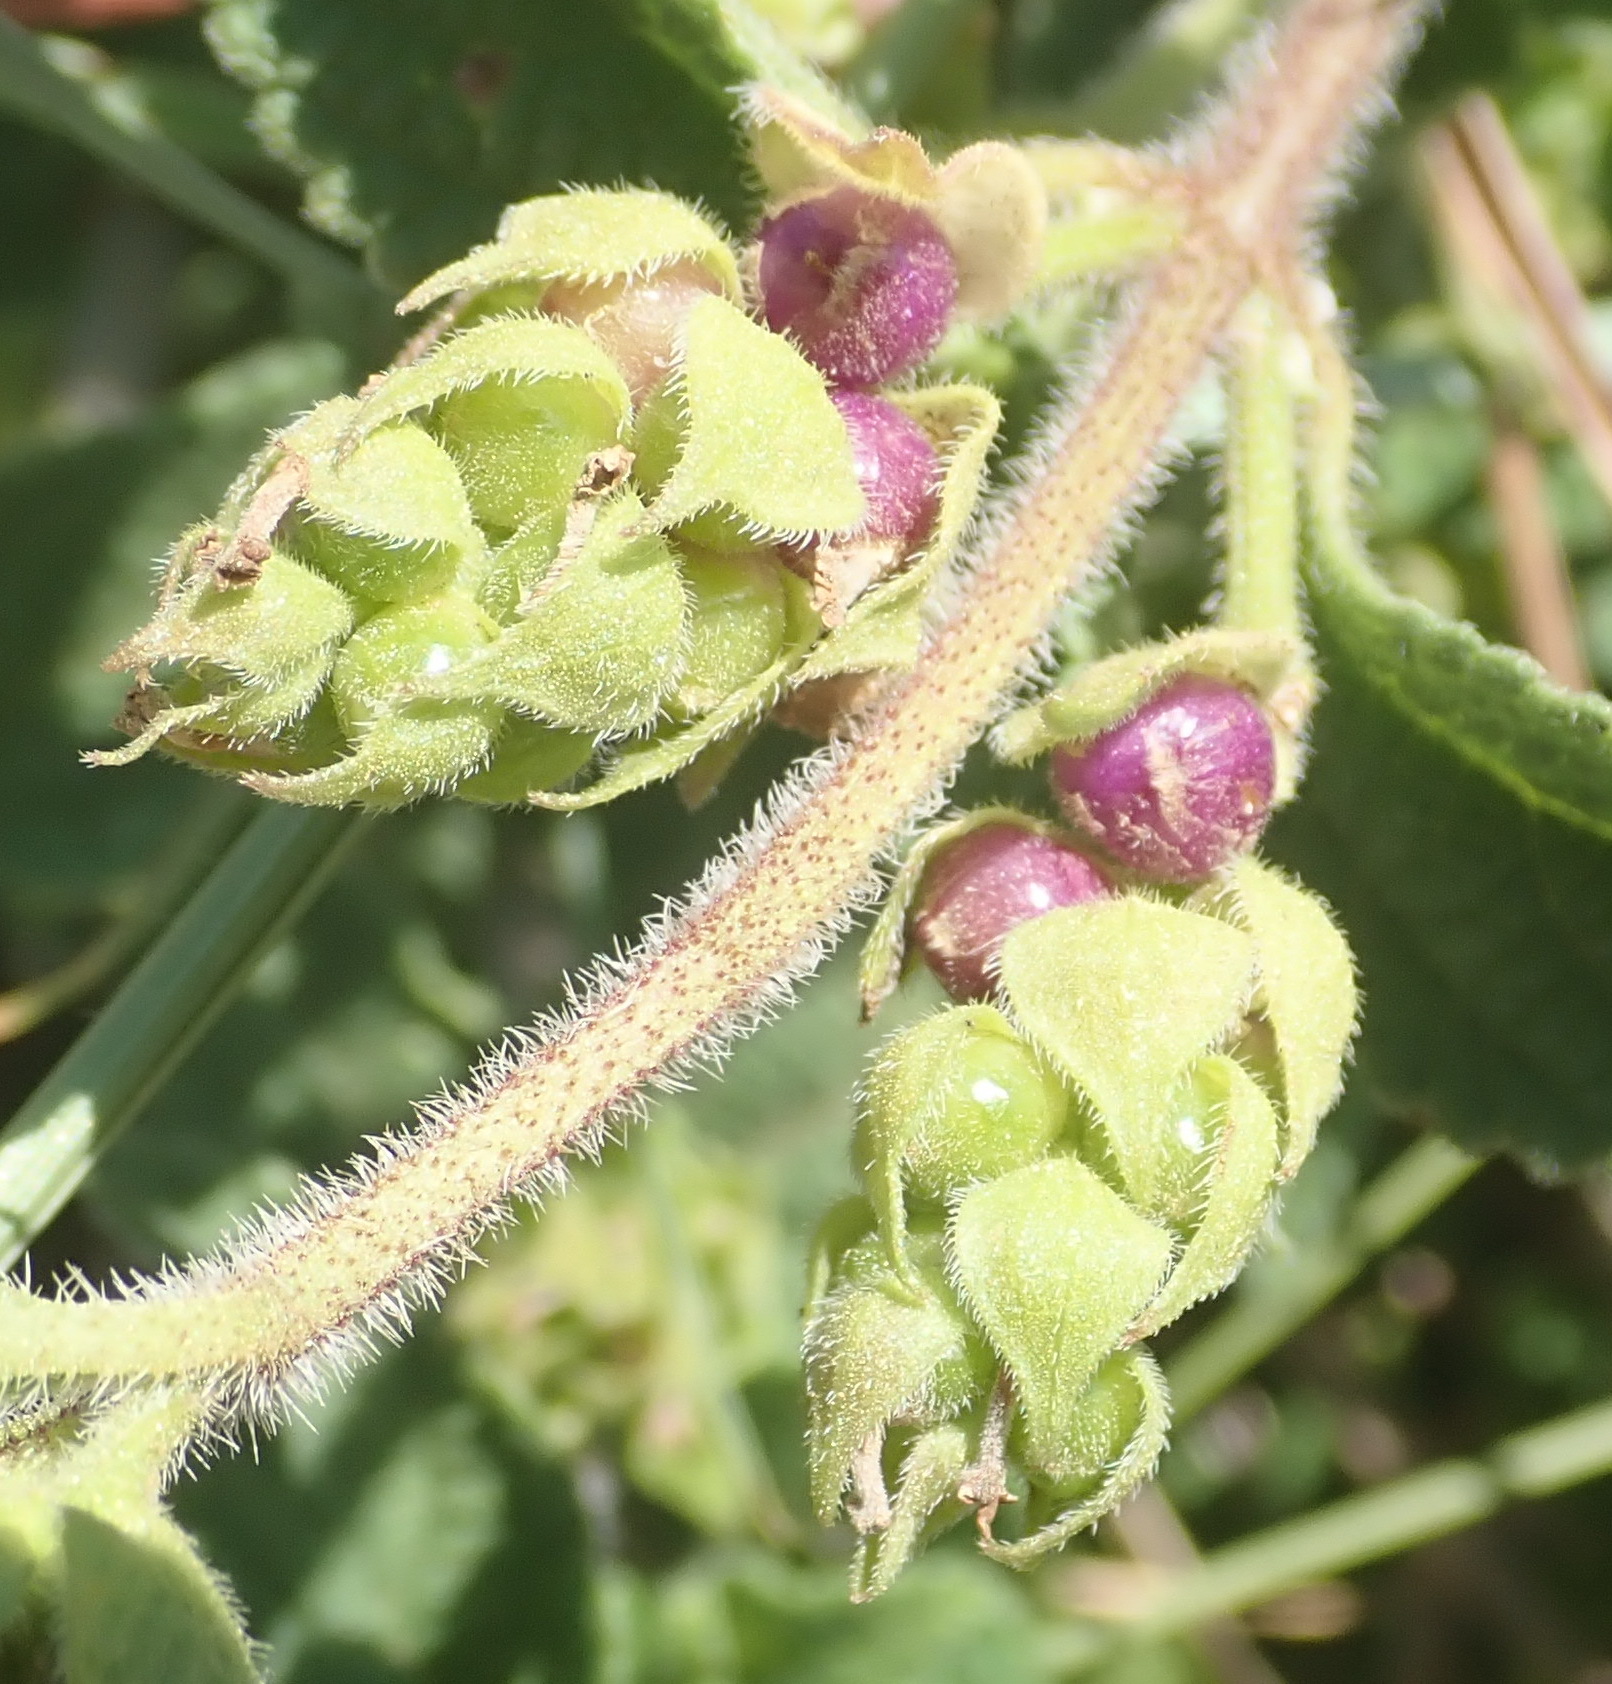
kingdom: Plantae
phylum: Tracheophyta
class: Magnoliopsida
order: Lamiales
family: Verbenaceae
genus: Lantana
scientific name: Lantana rugosa
